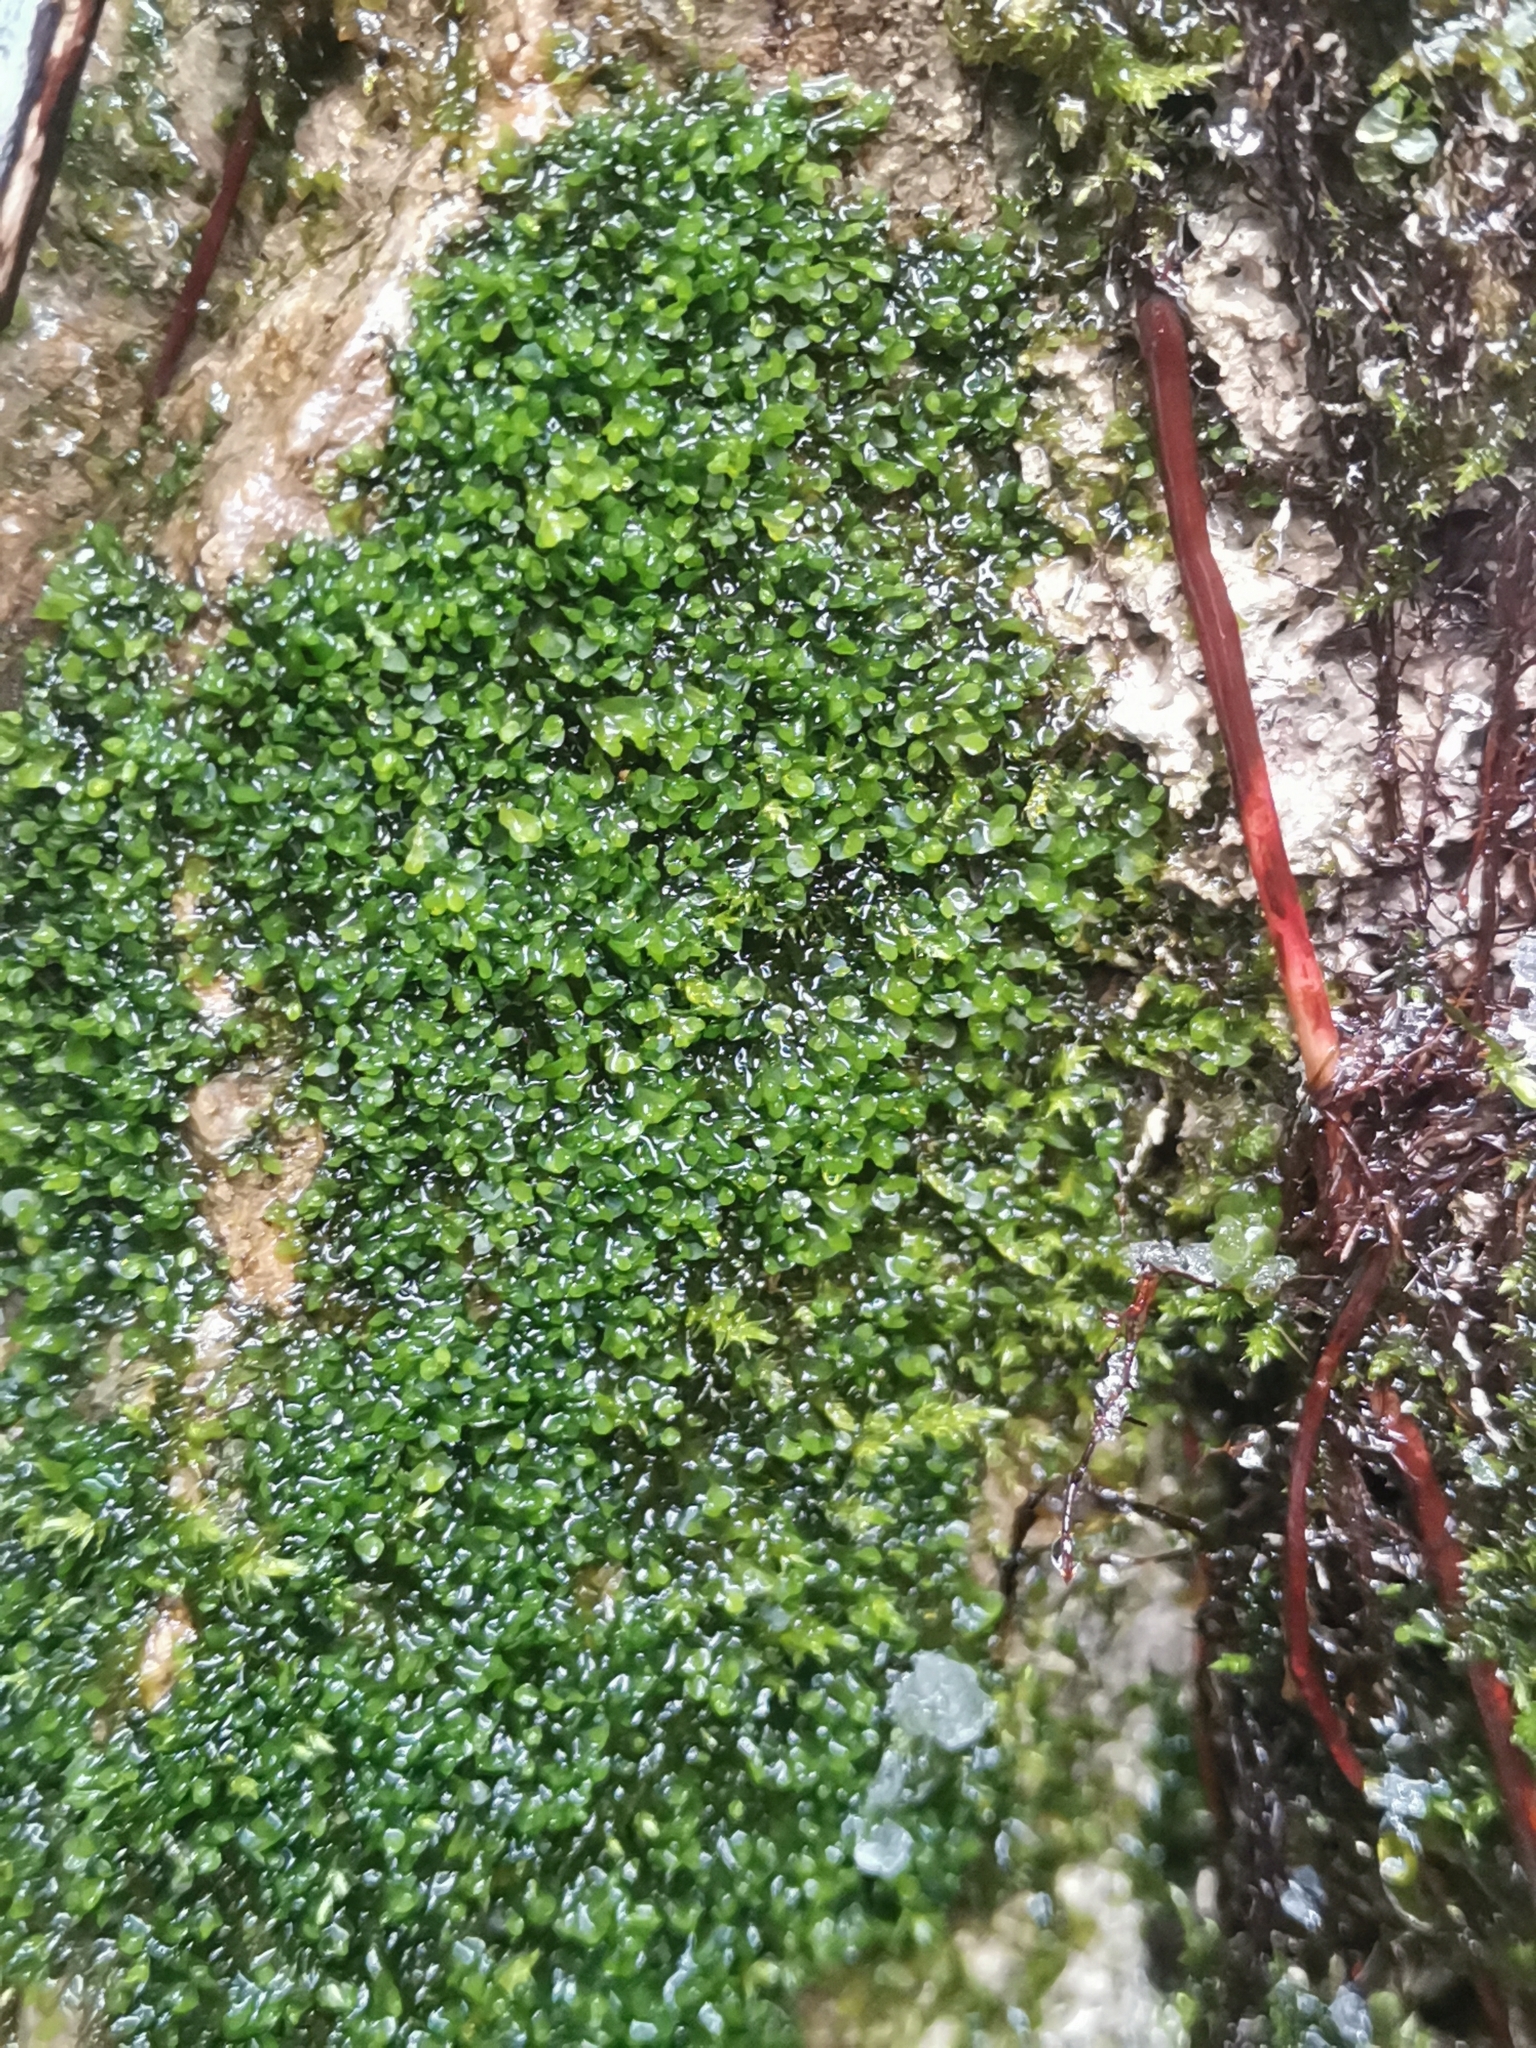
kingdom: Plantae
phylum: Marchantiophyta
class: Jungermanniopsida
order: Jungermanniales
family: Jungermanniaceae
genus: Jungermannia
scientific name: Jungermannia atrovirens
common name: Dark-green flapwort
